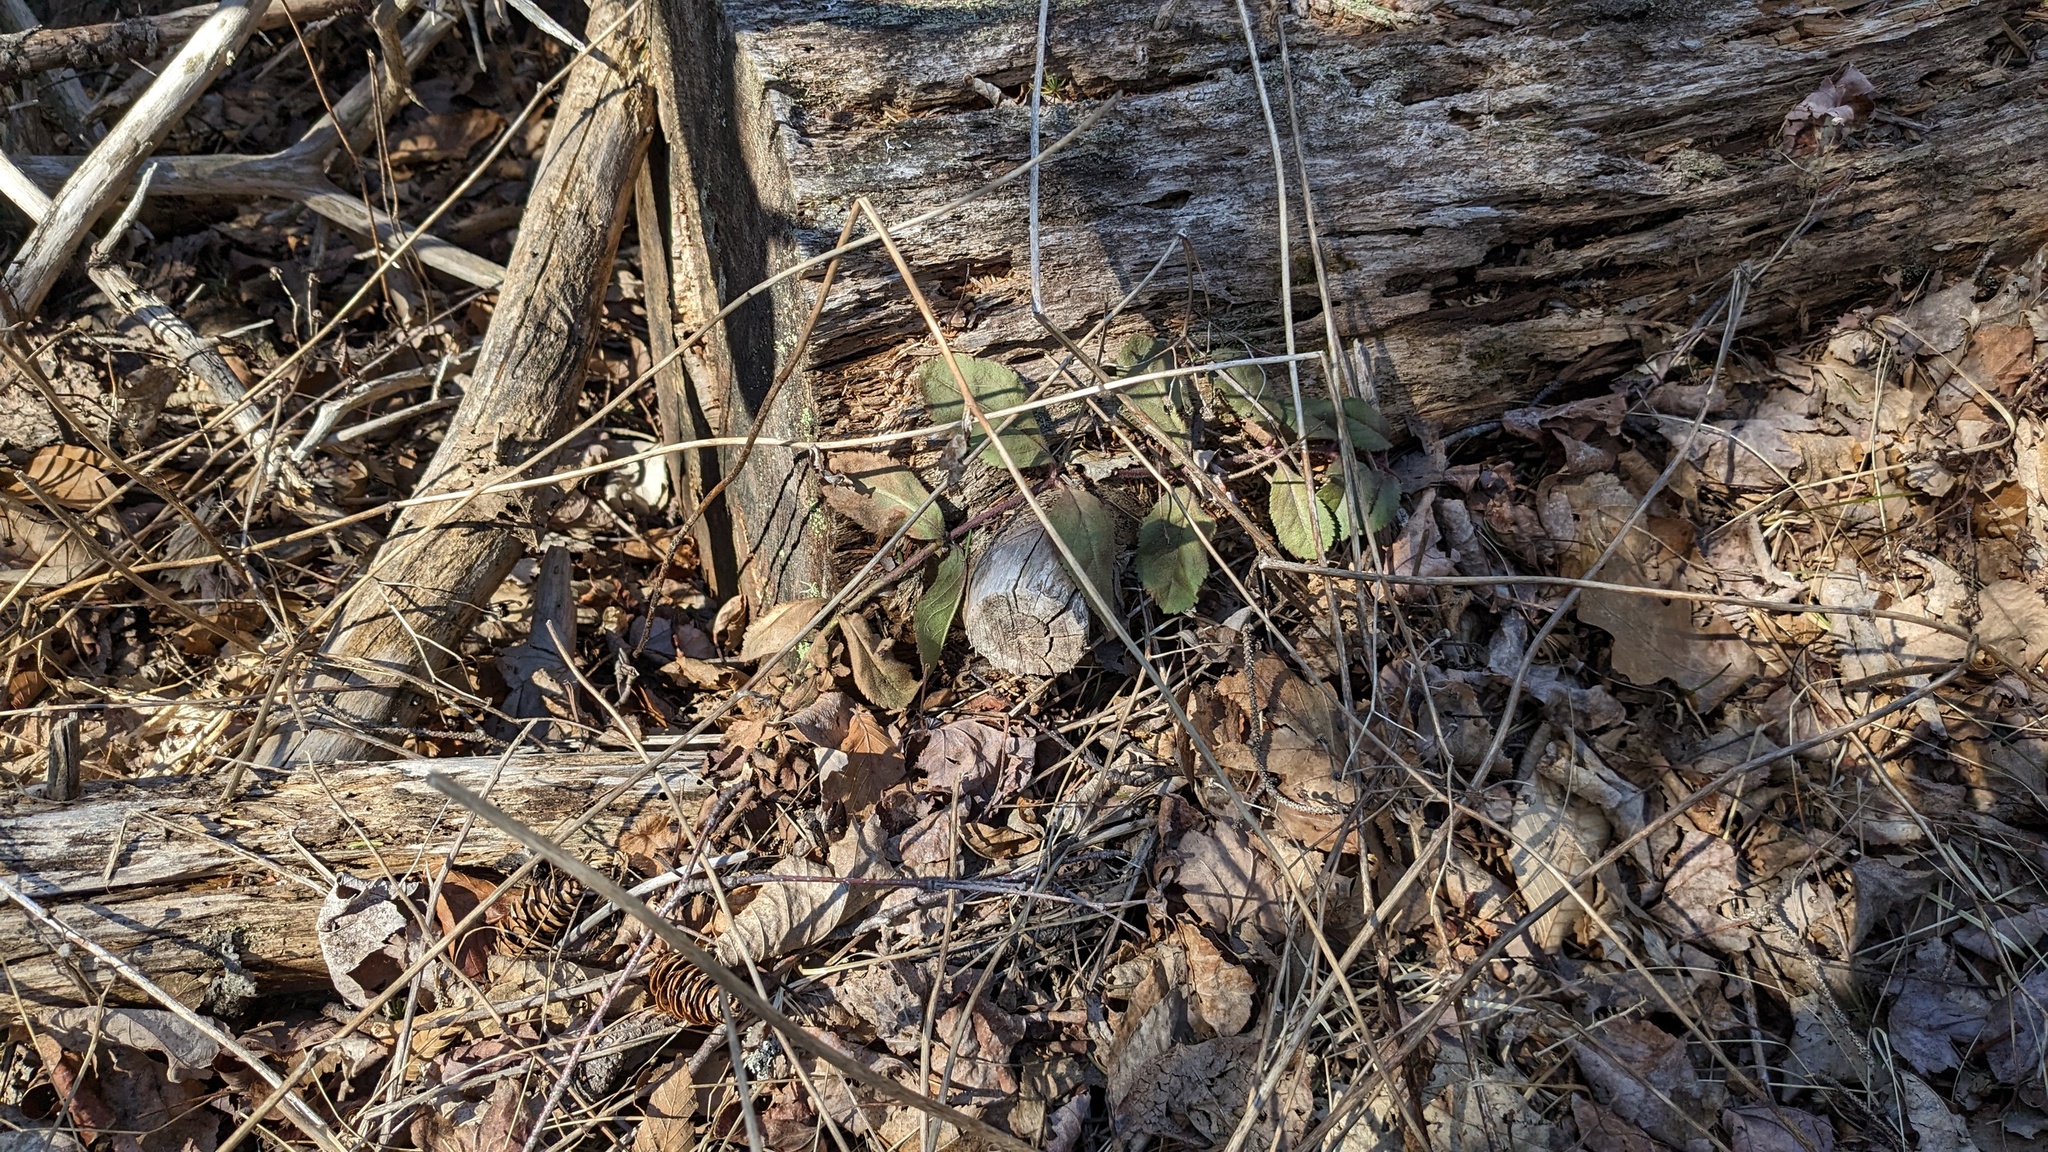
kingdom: Plantae
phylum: Tracheophyta
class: Magnoliopsida
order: Lamiales
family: Plantaginaceae
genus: Veronica
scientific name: Veronica officinalis
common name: Common speedwell
